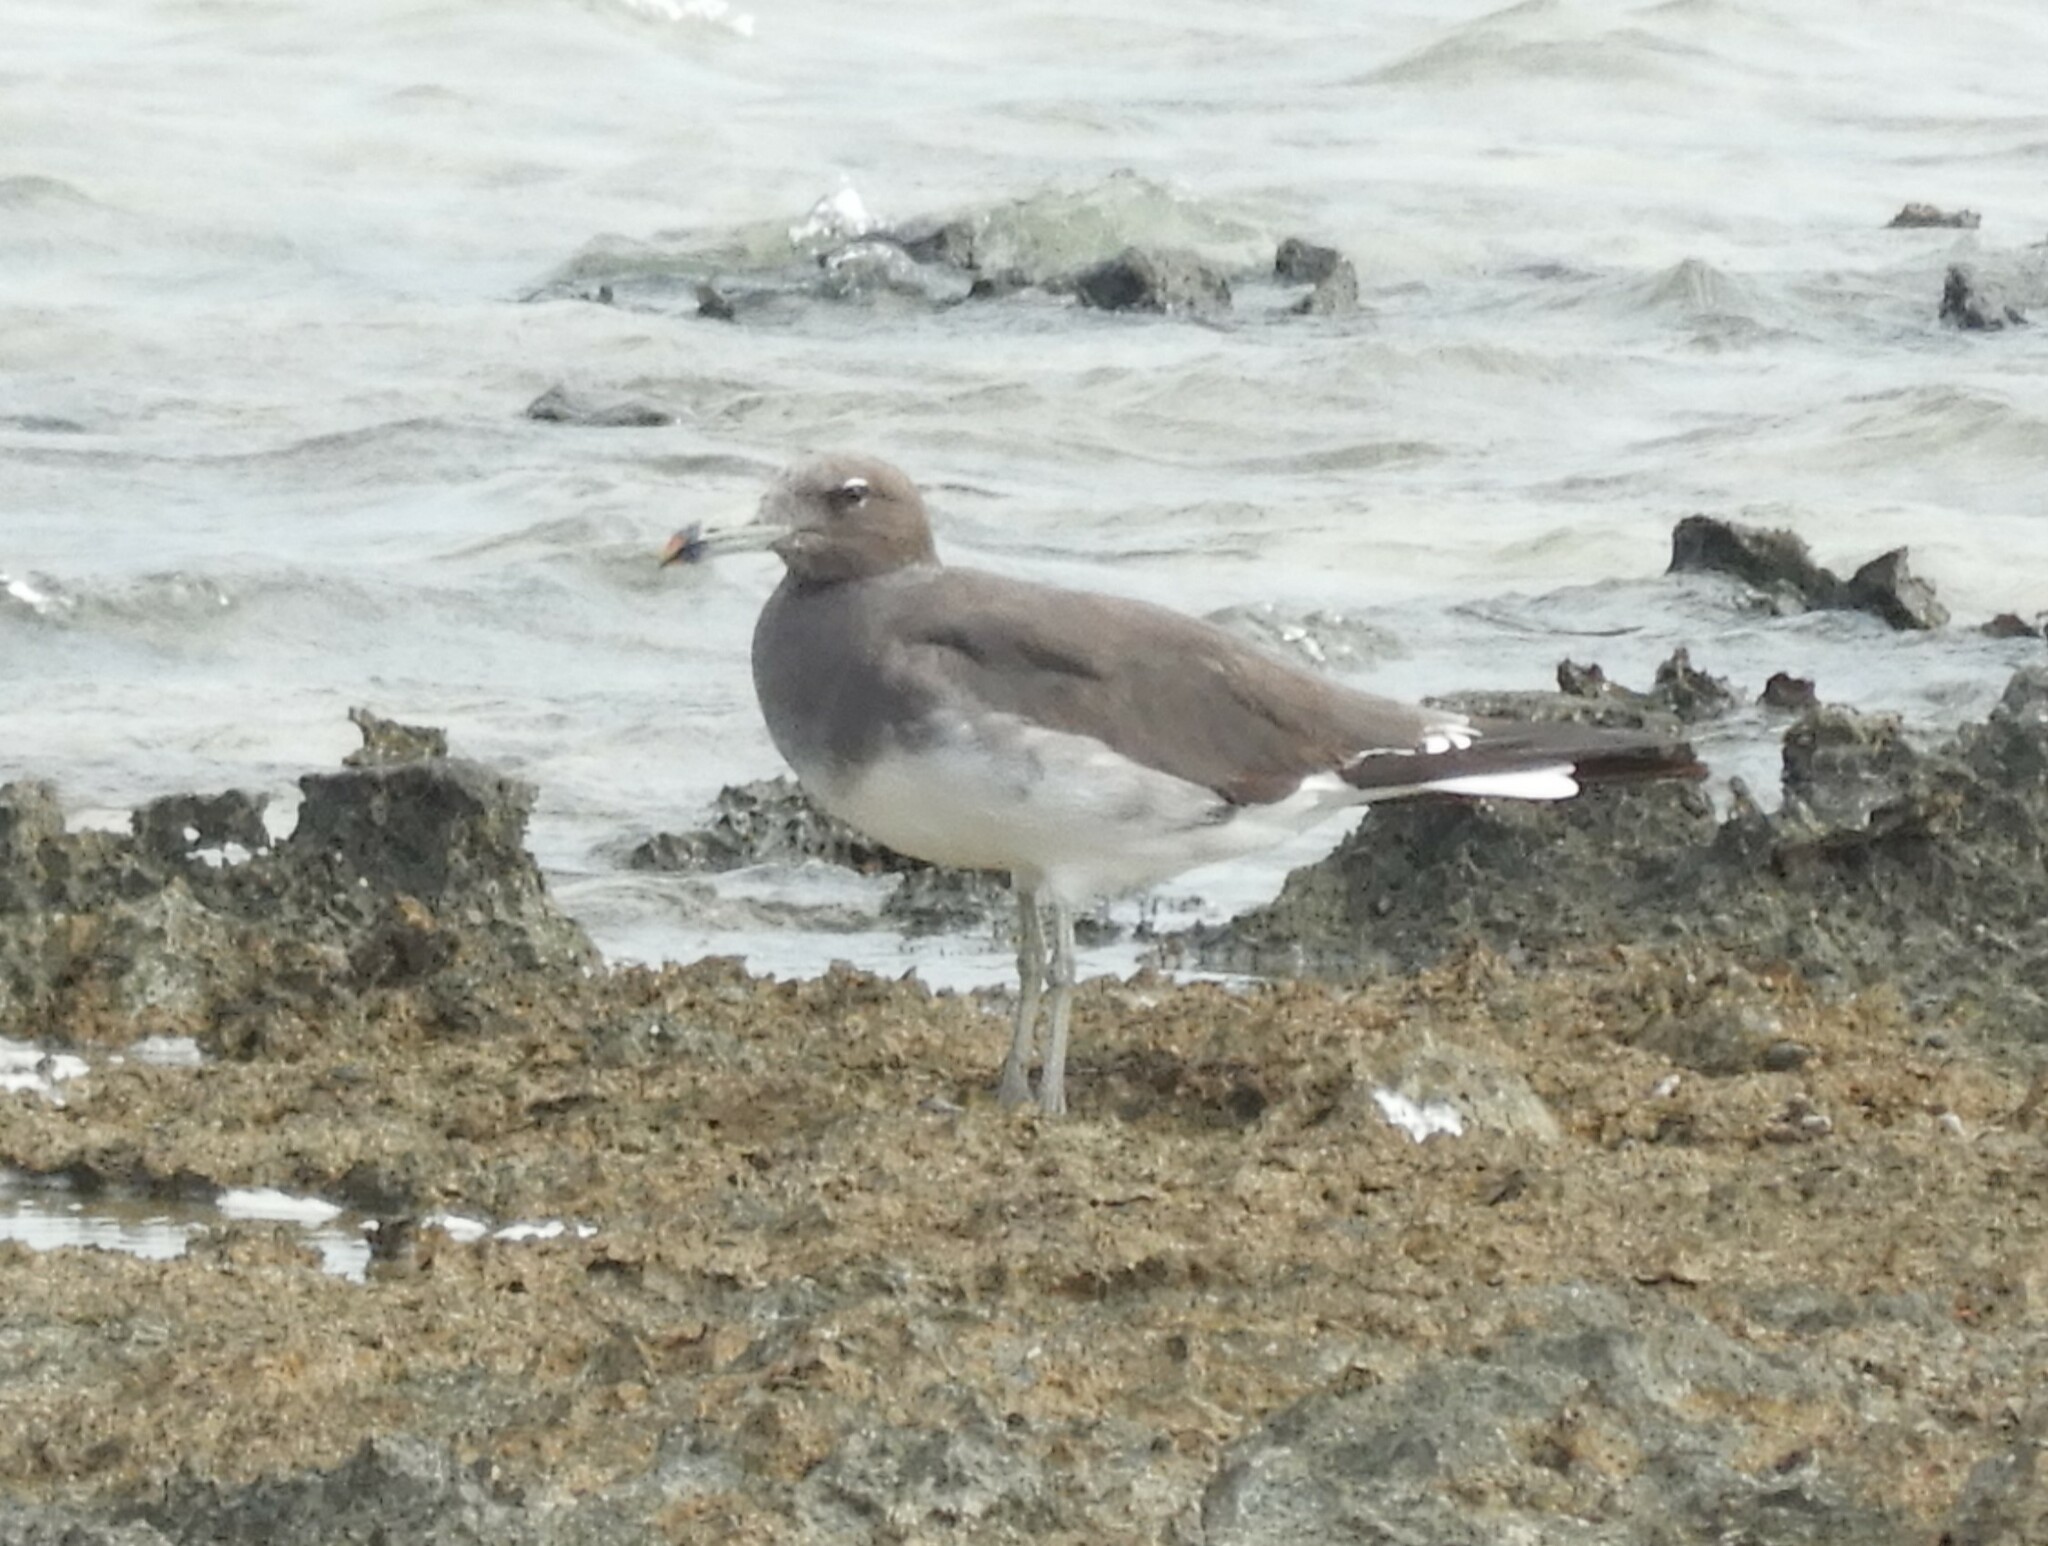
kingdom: Animalia
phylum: Chordata
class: Aves
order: Charadriiformes
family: Laridae
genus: Ichthyaetus
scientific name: Ichthyaetus hemprichii
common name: Sooty gull
